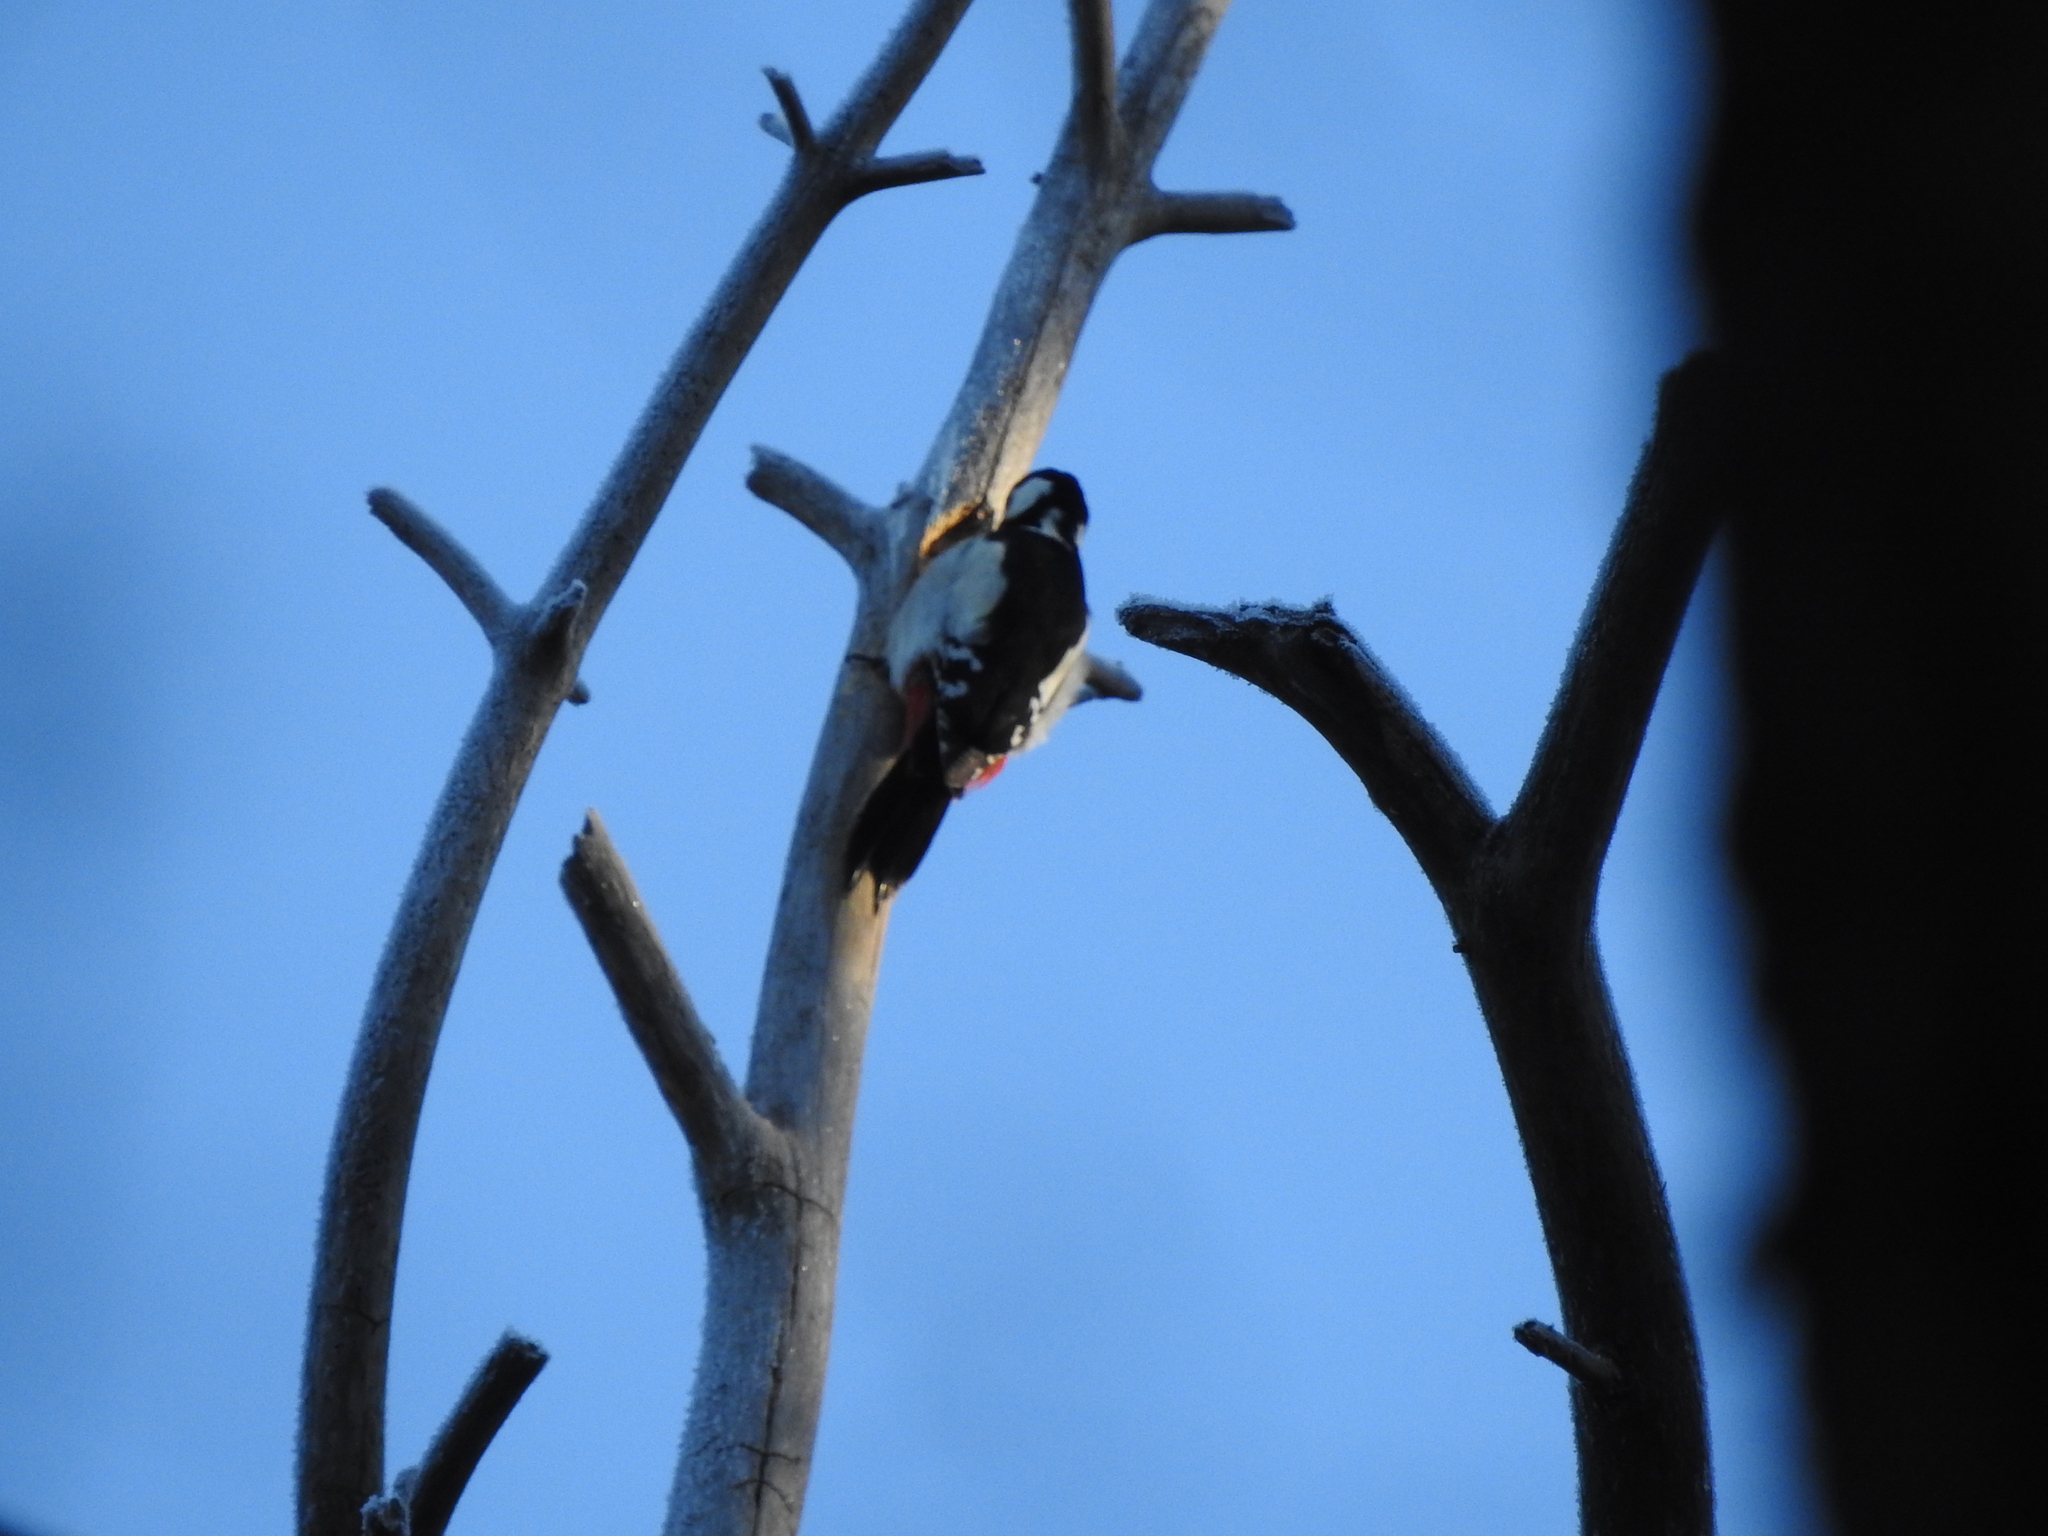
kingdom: Animalia
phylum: Chordata
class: Aves
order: Piciformes
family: Picidae
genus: Dendrocopos
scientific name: Dendrocopos major
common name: Great spotted woodpecker
